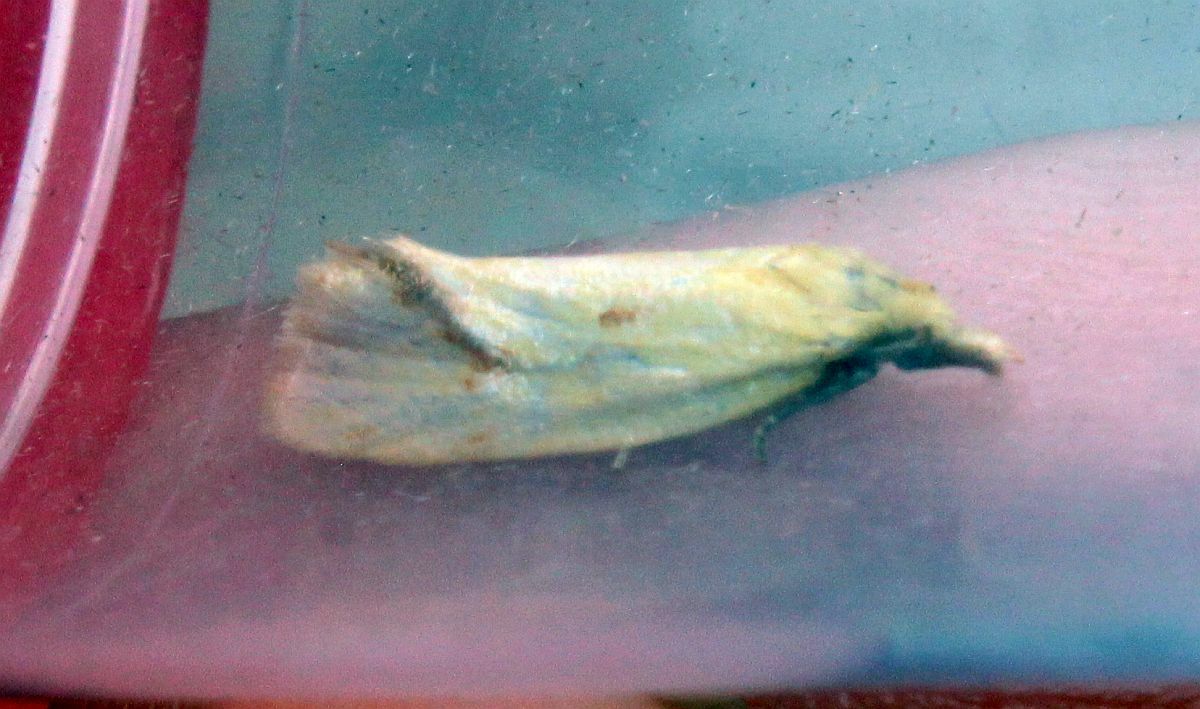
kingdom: Animalia
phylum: Arthropoda
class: Insecta
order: Lepidoptera
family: Tortricidae
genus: Agapeta
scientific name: Agapeta hamana
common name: Common yellow conch
